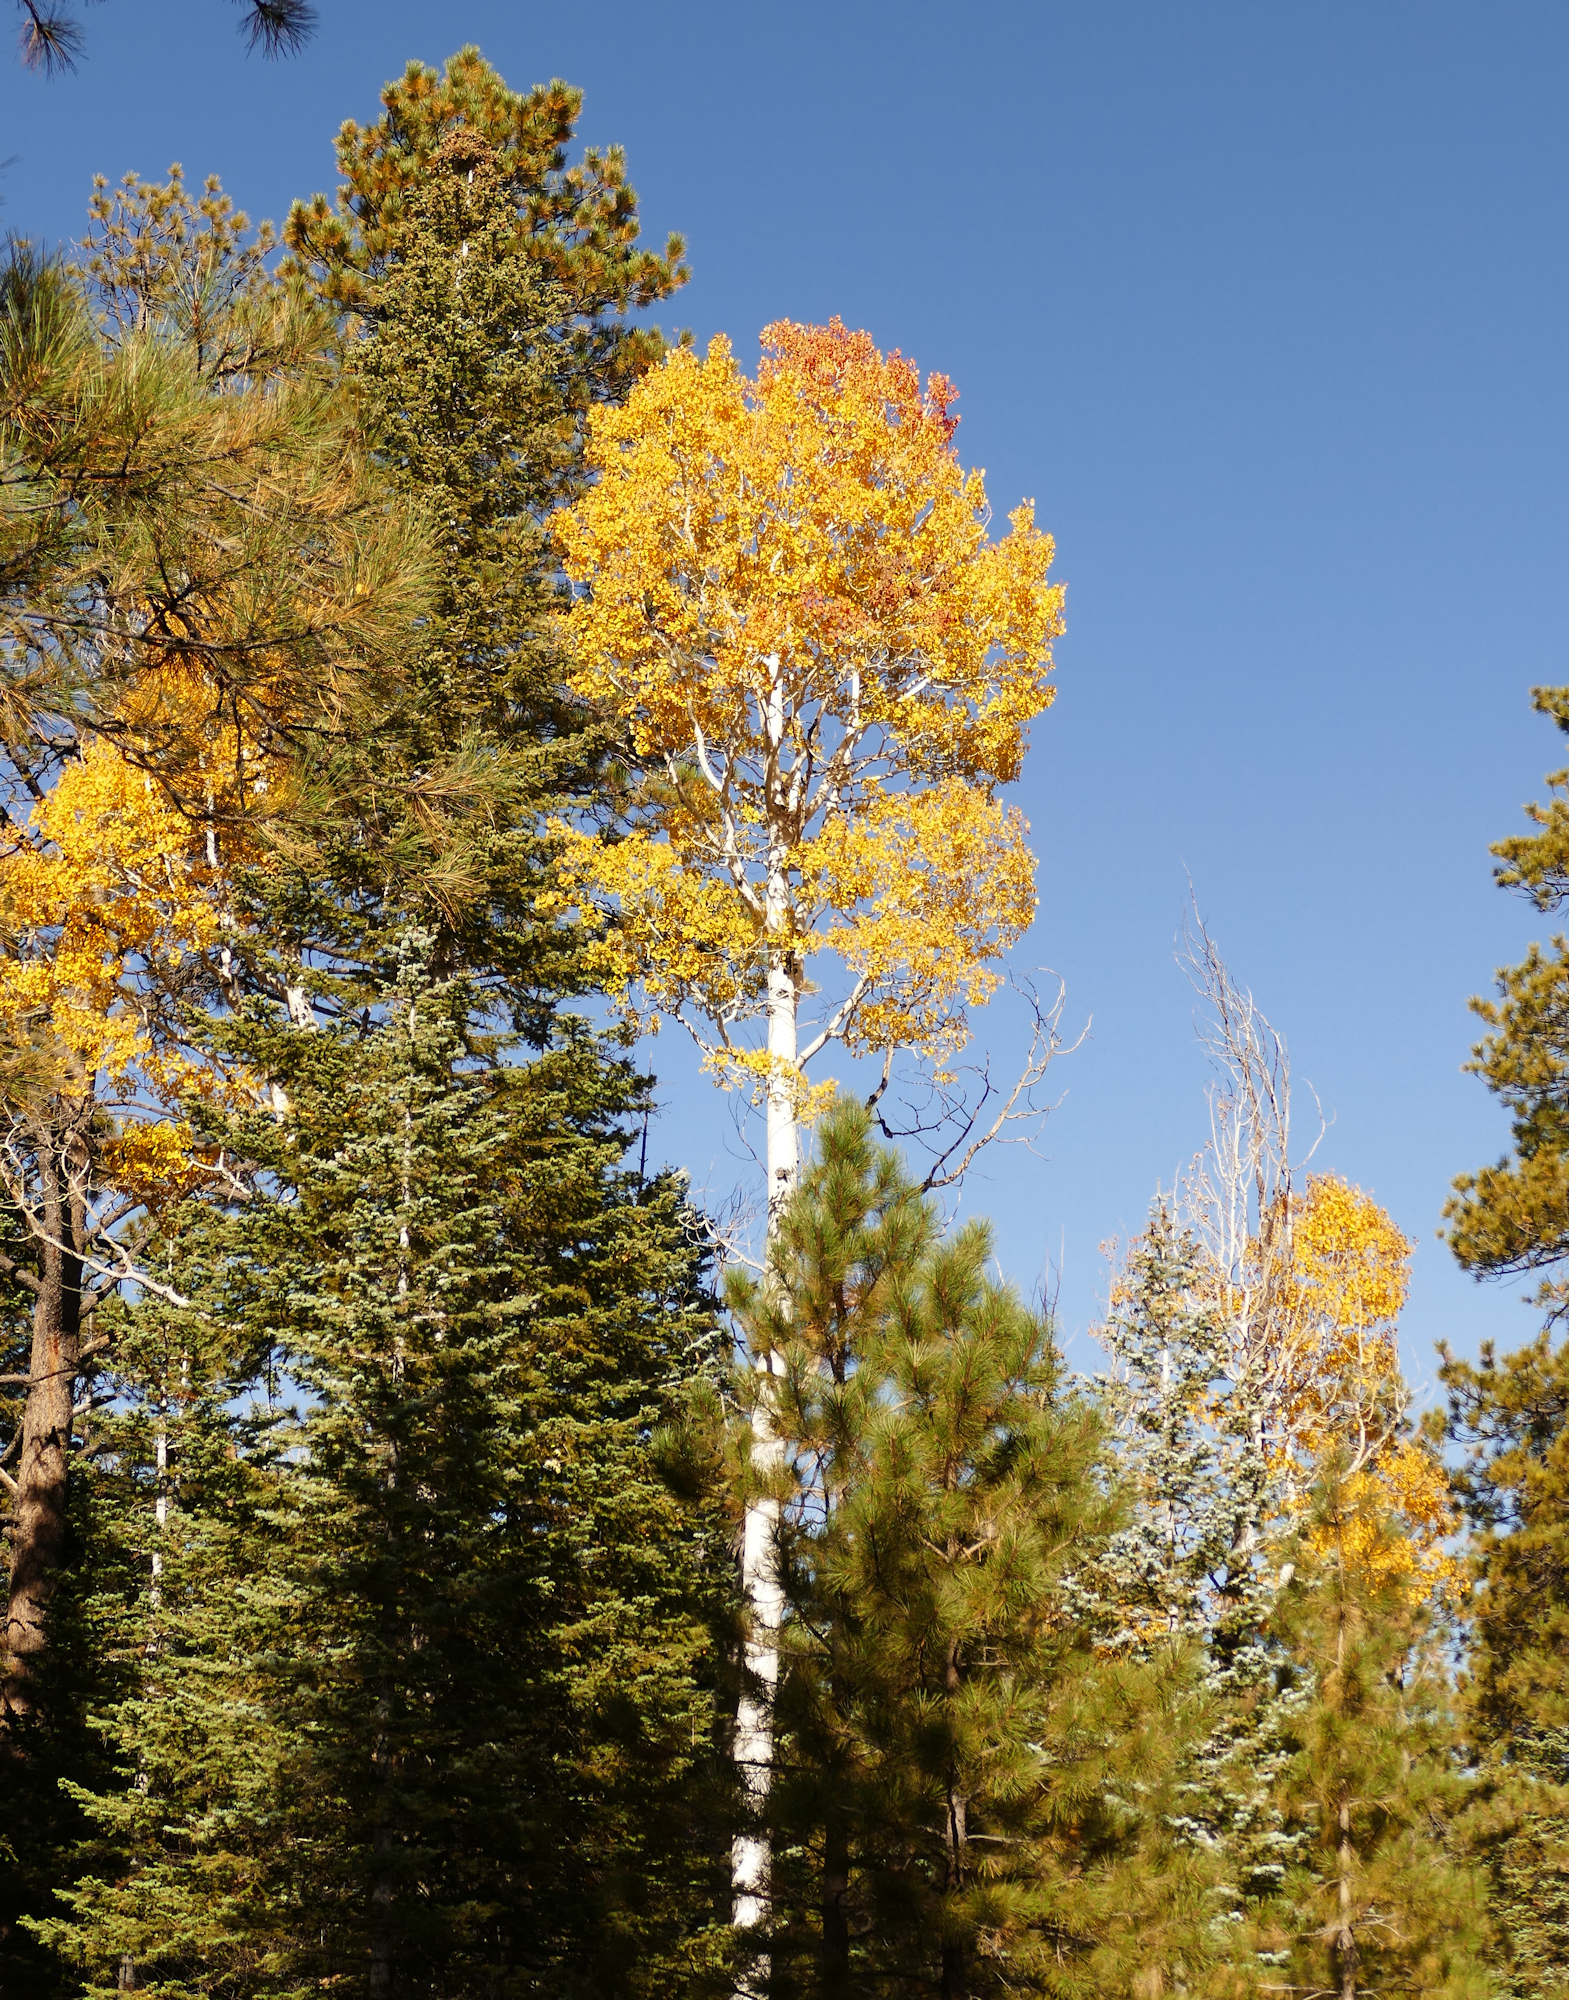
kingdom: Plantae
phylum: Tracheophyta
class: Magnoliopsida
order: Malpighiales
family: Salicaceae
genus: Populus
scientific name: Populus tremuloides
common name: Quaking aspen
